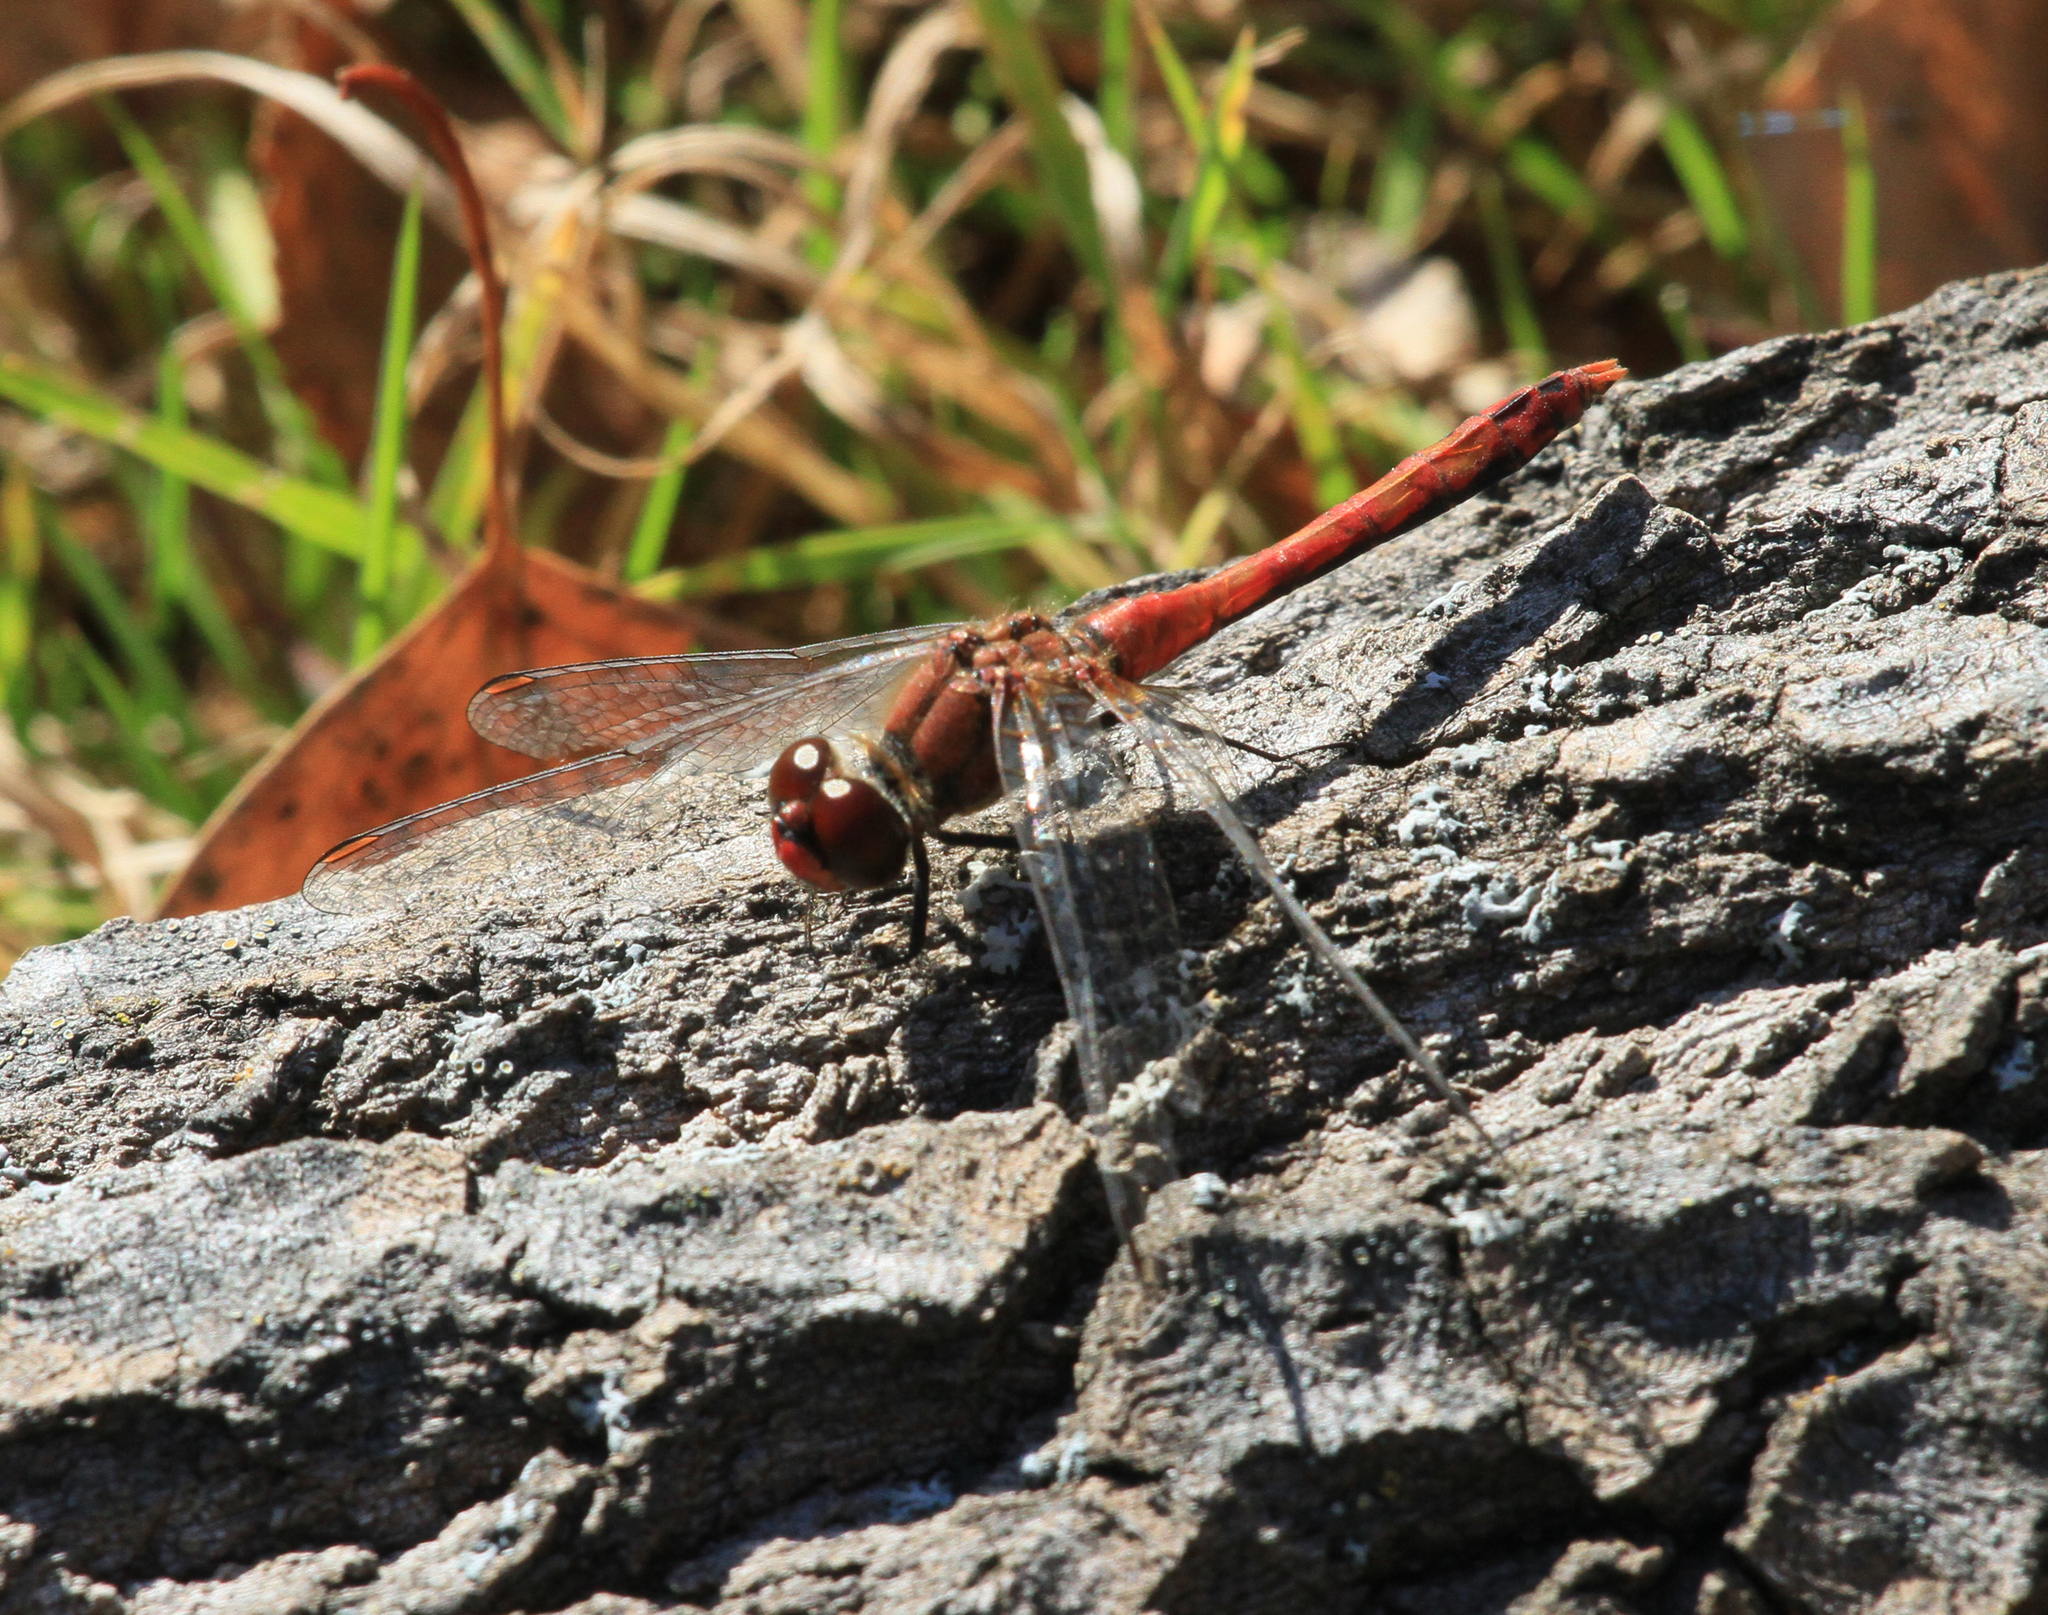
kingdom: Animalia
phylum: Arthropoda
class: Insecta
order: Odonata
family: Libellulidae
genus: Sympetrum
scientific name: Sympetrum sanguineum
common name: Ruddy darter
